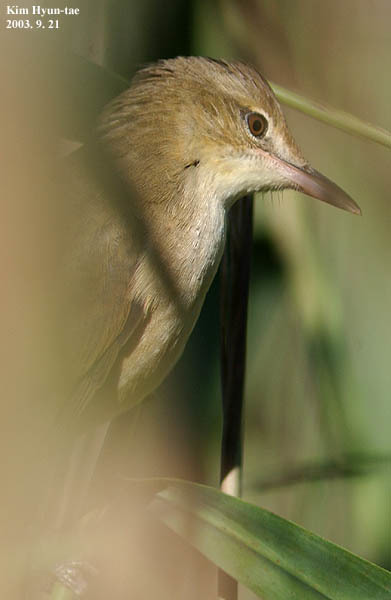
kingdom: Animalia
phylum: Chordata
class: Aves
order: Passeriformes
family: Acrocephalidae
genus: Acrocephalus
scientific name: Acrocephalus orientalis
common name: Oriental reed warbler
